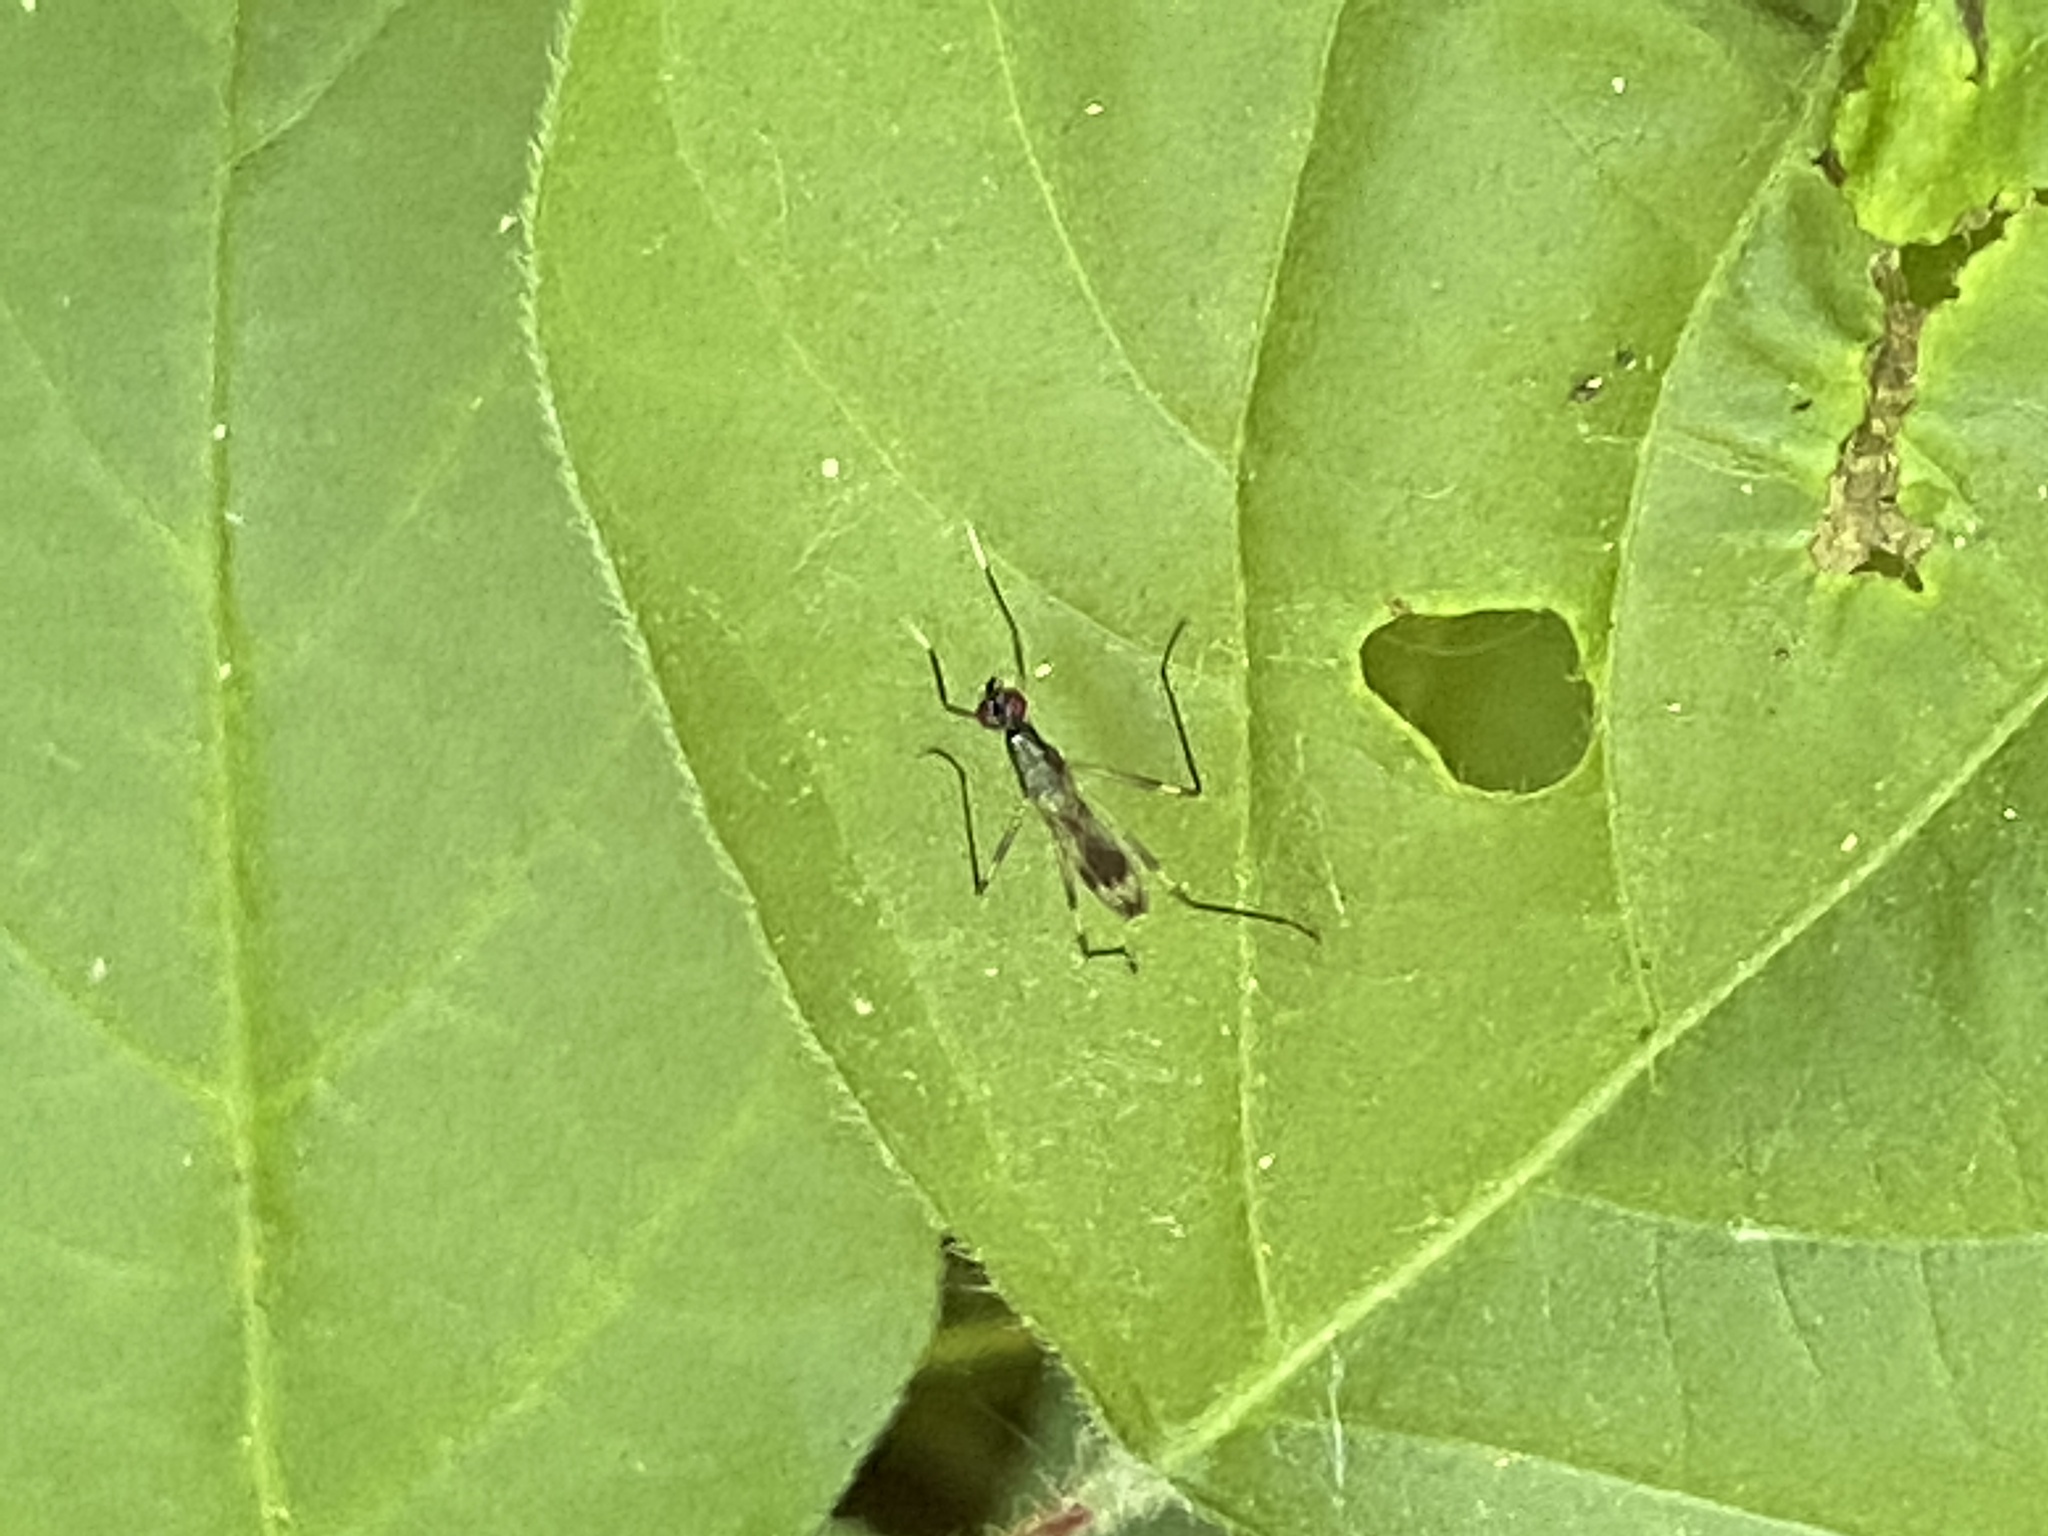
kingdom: Animalia
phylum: Arthropoda
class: Insecta
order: Diptera
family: Micropezidae
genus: Rainieria
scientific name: Rainieria antennaepes
